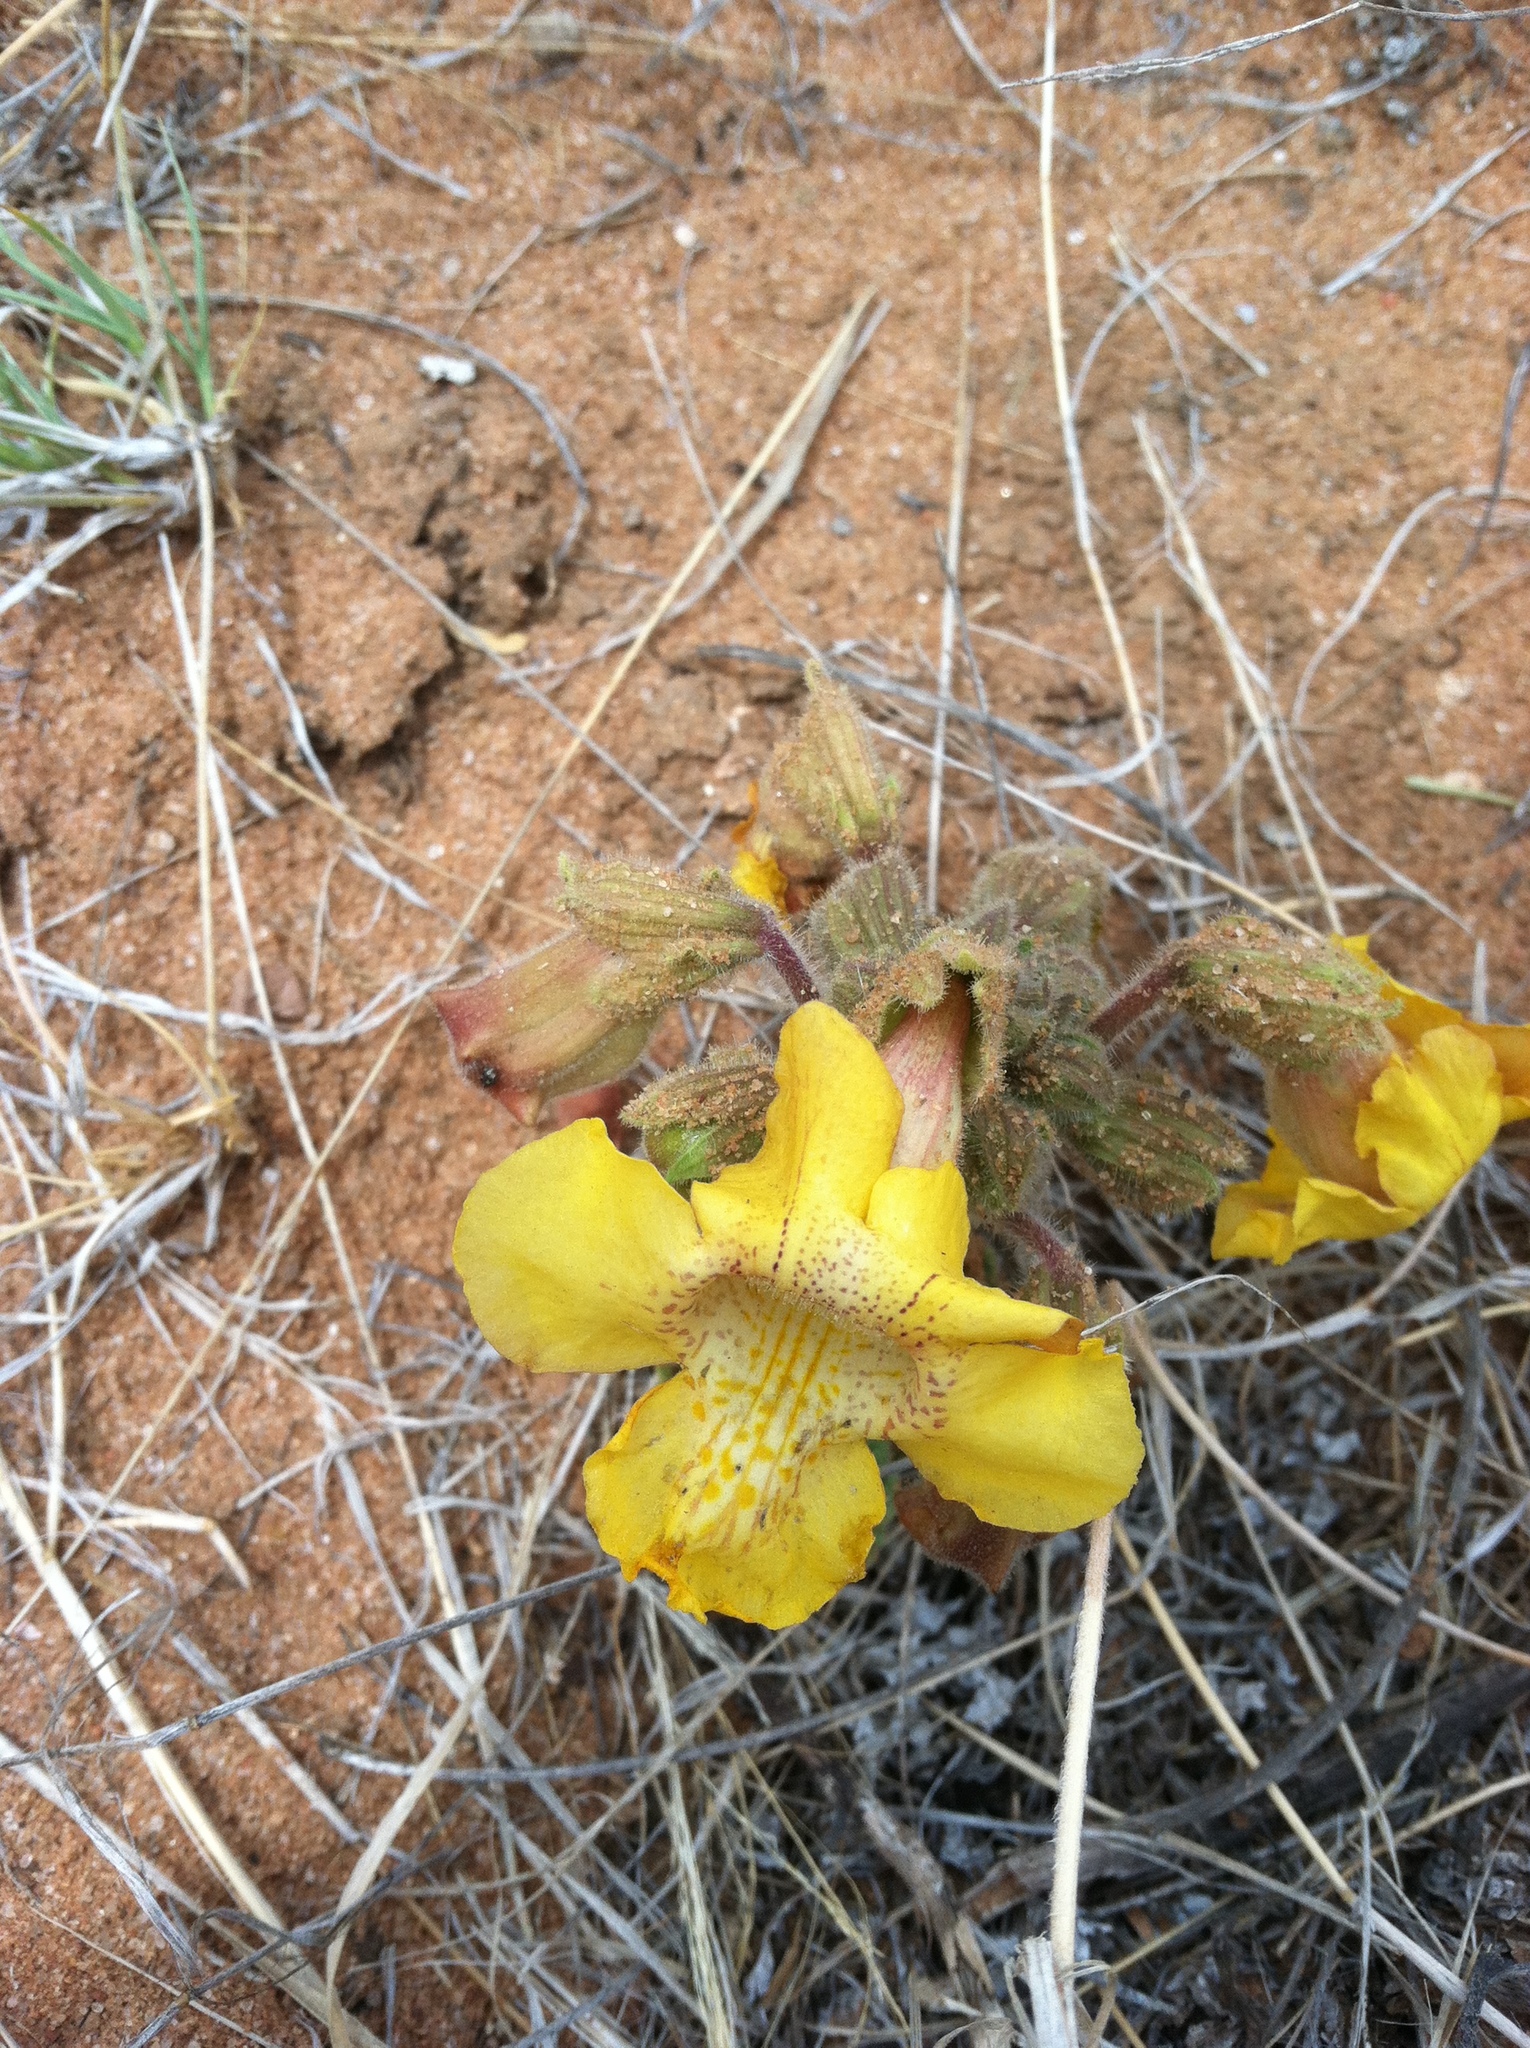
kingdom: Plantae
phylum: Tracheophyta
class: Magnoliopsida
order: Lamiales
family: Martyniaceae
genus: Proboscidea
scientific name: Proboscidea althaeifolia
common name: Desert unicorn-plant
